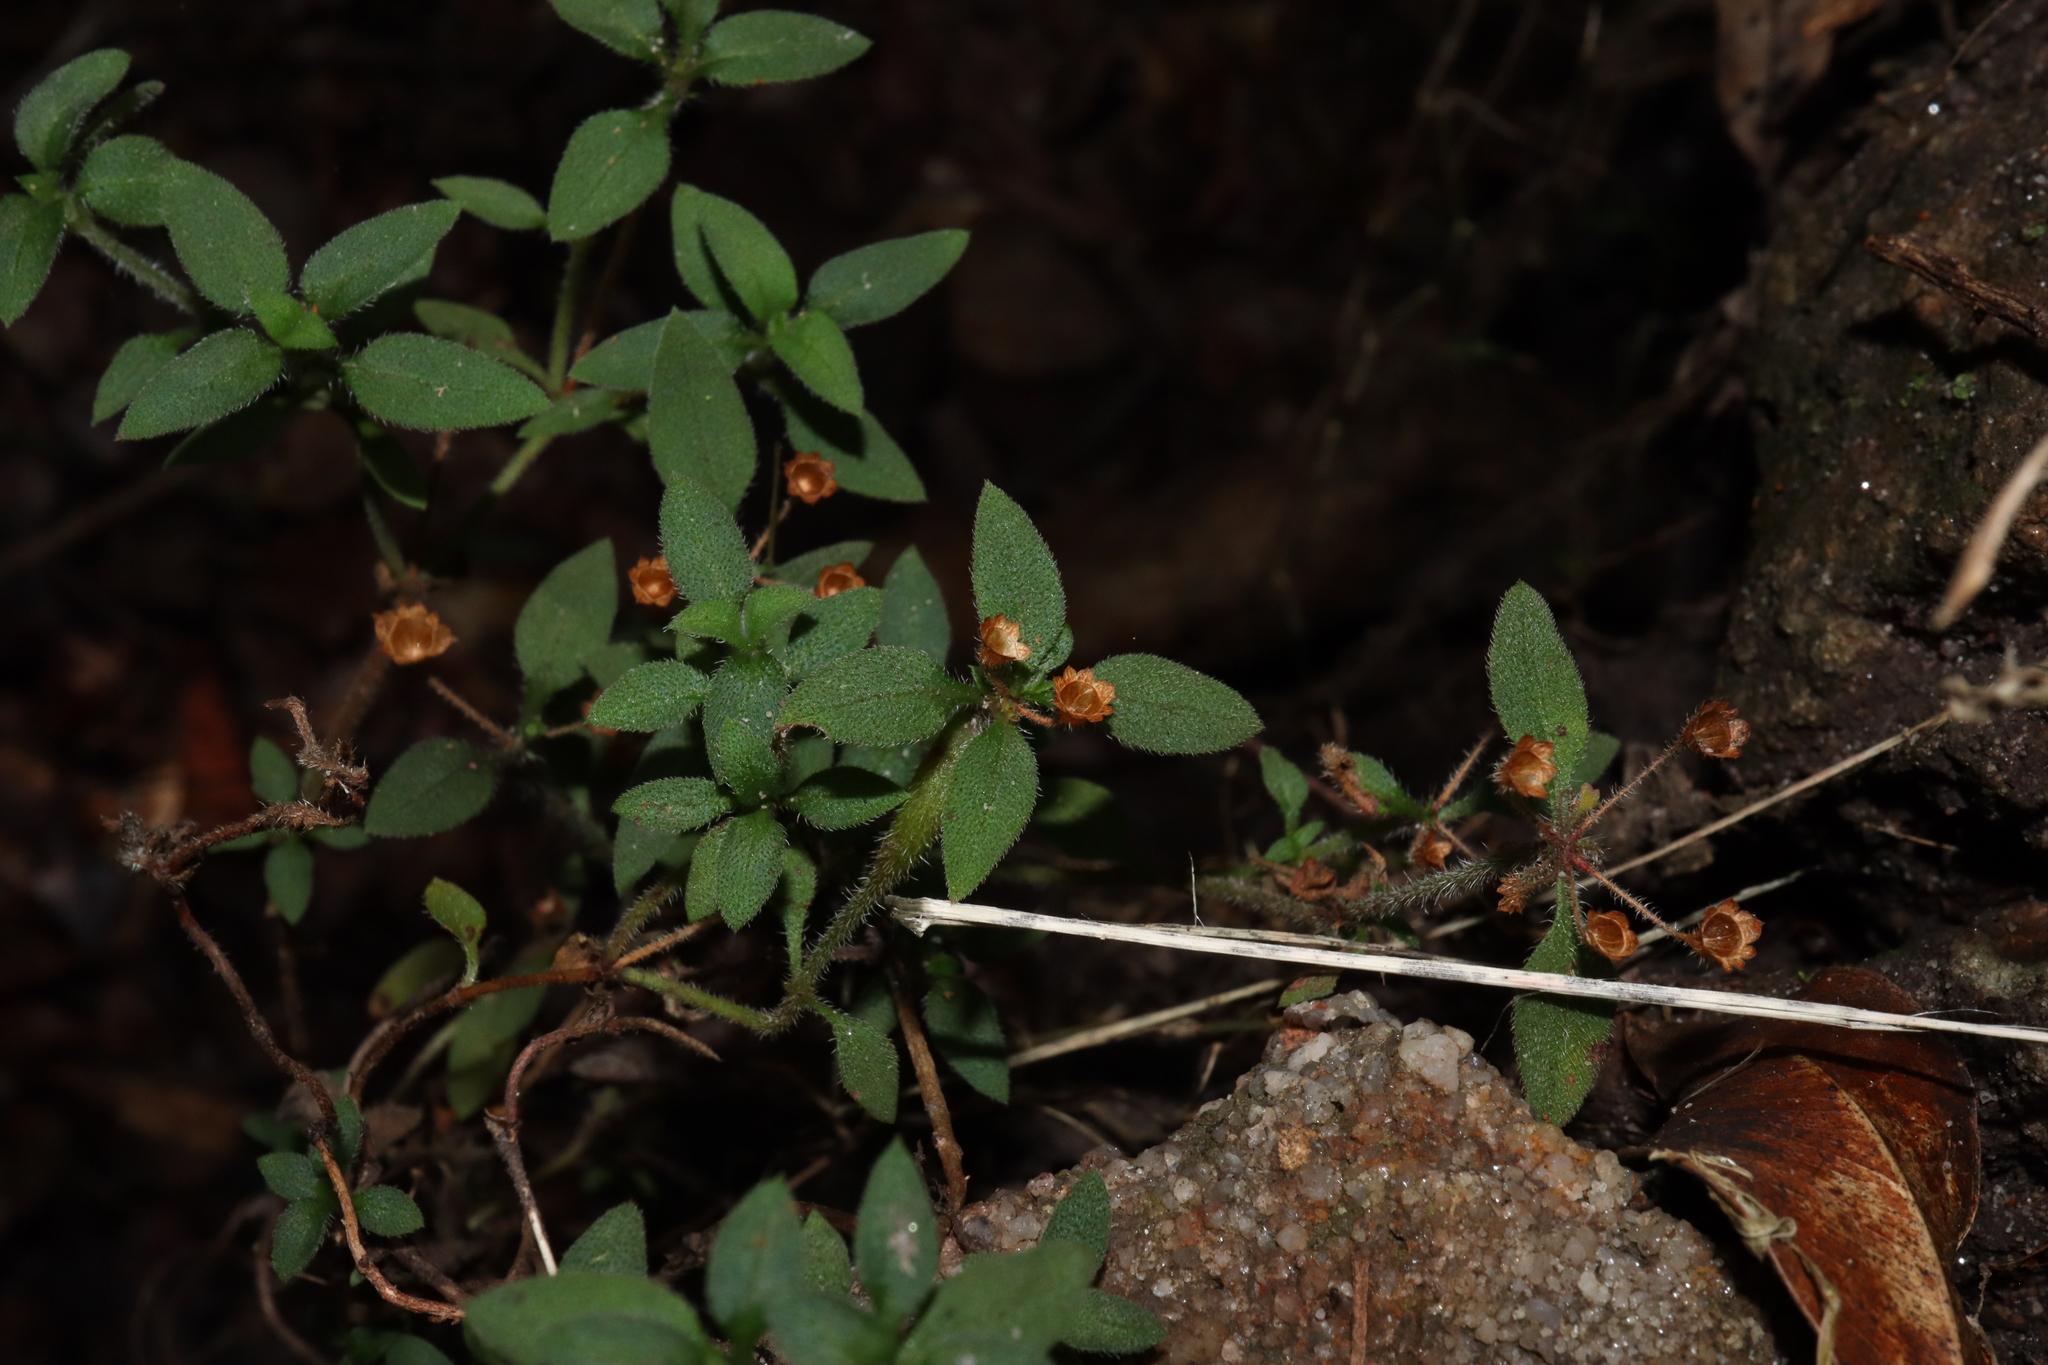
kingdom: Plantae
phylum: Tracheophyta
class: Magnoliopsida
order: Gentianales
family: Rubiaceae
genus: Pomax
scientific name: Pomax umbellata
